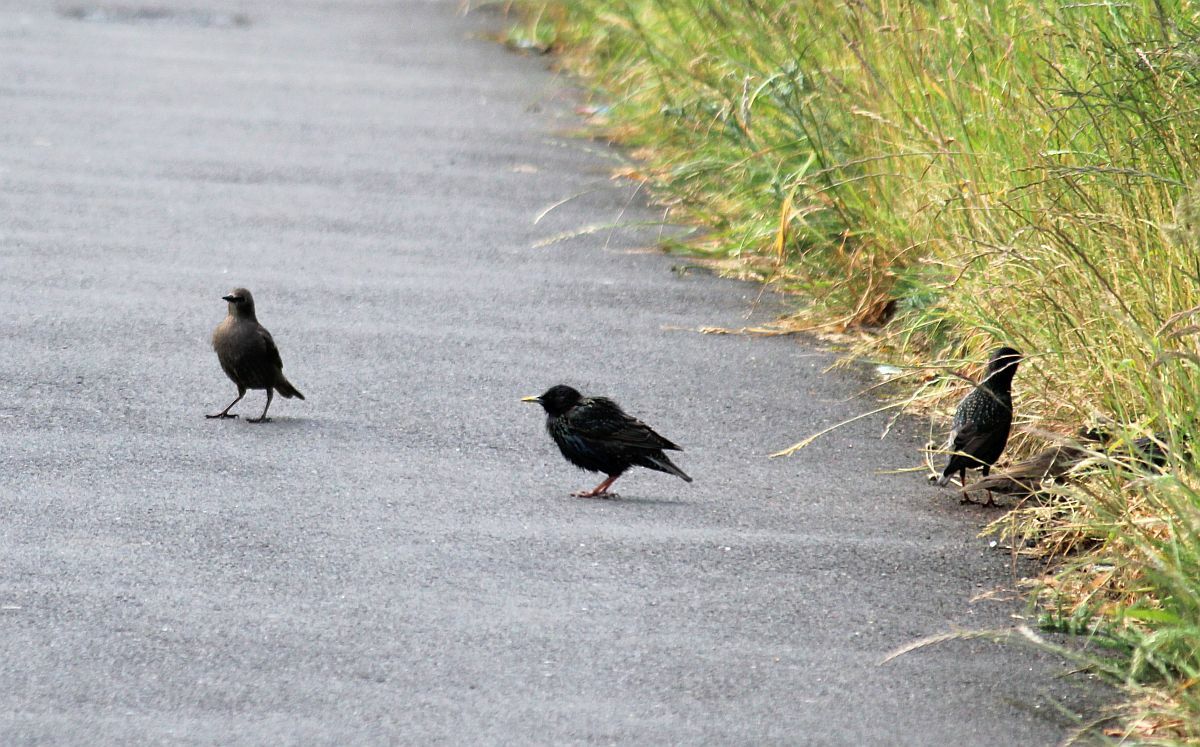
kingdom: Animalia
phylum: Chordata
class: Aves
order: Passeriformes
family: Sturnidae
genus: Sturnus
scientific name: Sturnus vulgaris
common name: Common starling
